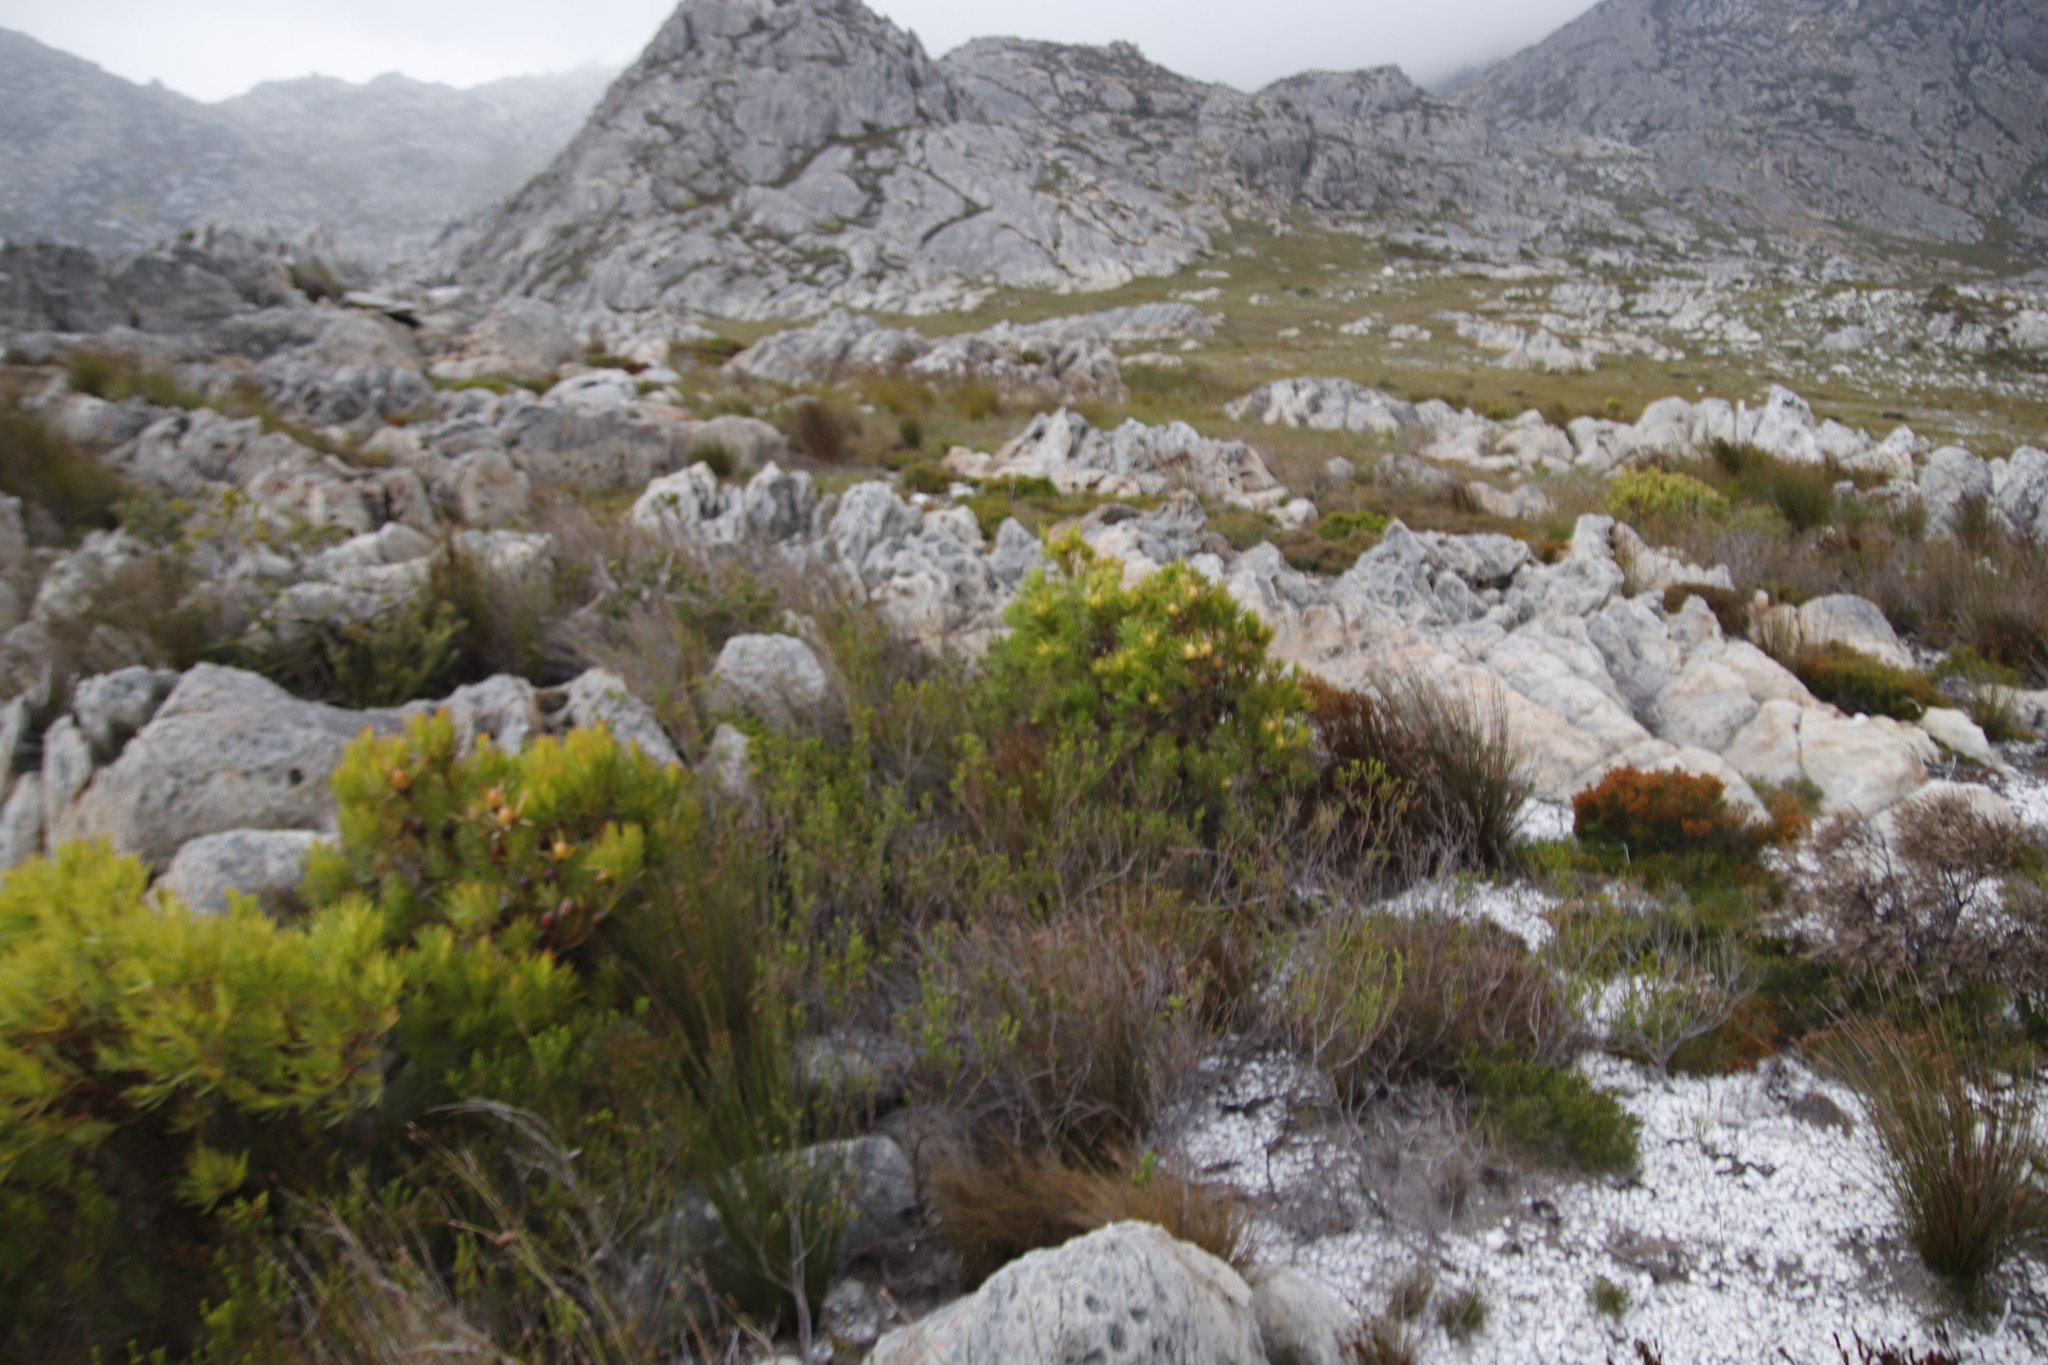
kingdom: Plantae
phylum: Tracheophyta
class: Magnoliopsida
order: Proteales
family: Proteaceae
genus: Leucadendron
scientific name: Leucadendron xanthoconus
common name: Sickle-leaf conebush
